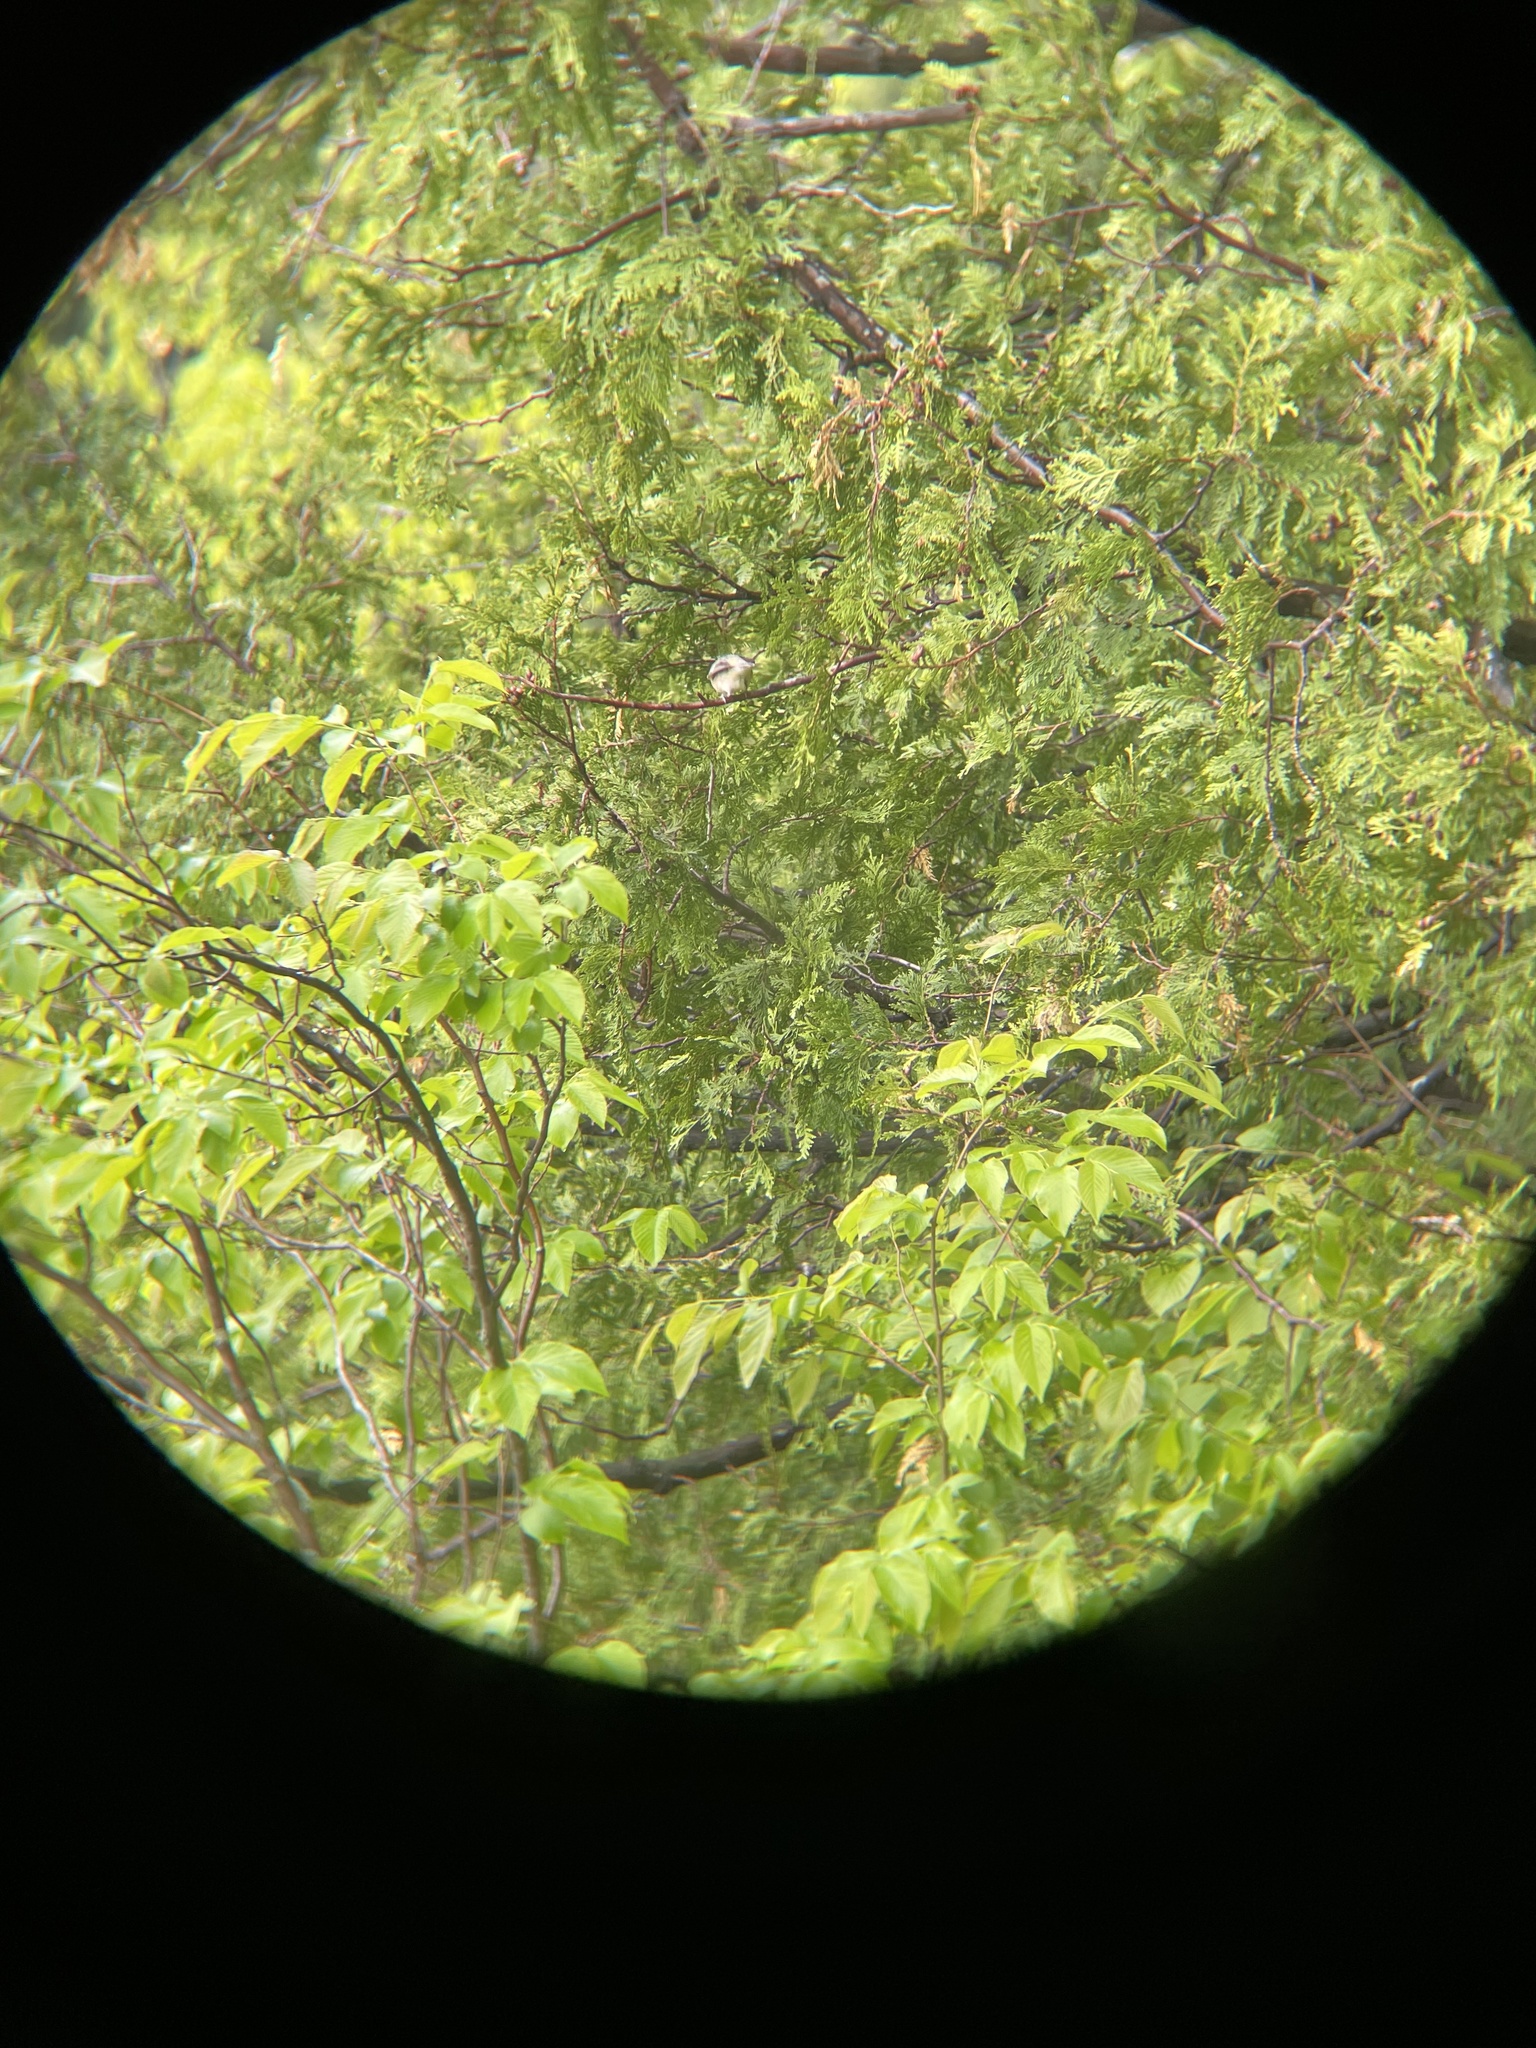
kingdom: Animalia
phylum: Chordata
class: Aves
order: Passeriformes
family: Parulidae
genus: Setophaga
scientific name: Setophaga castanea
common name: Bay-breasted warbler
